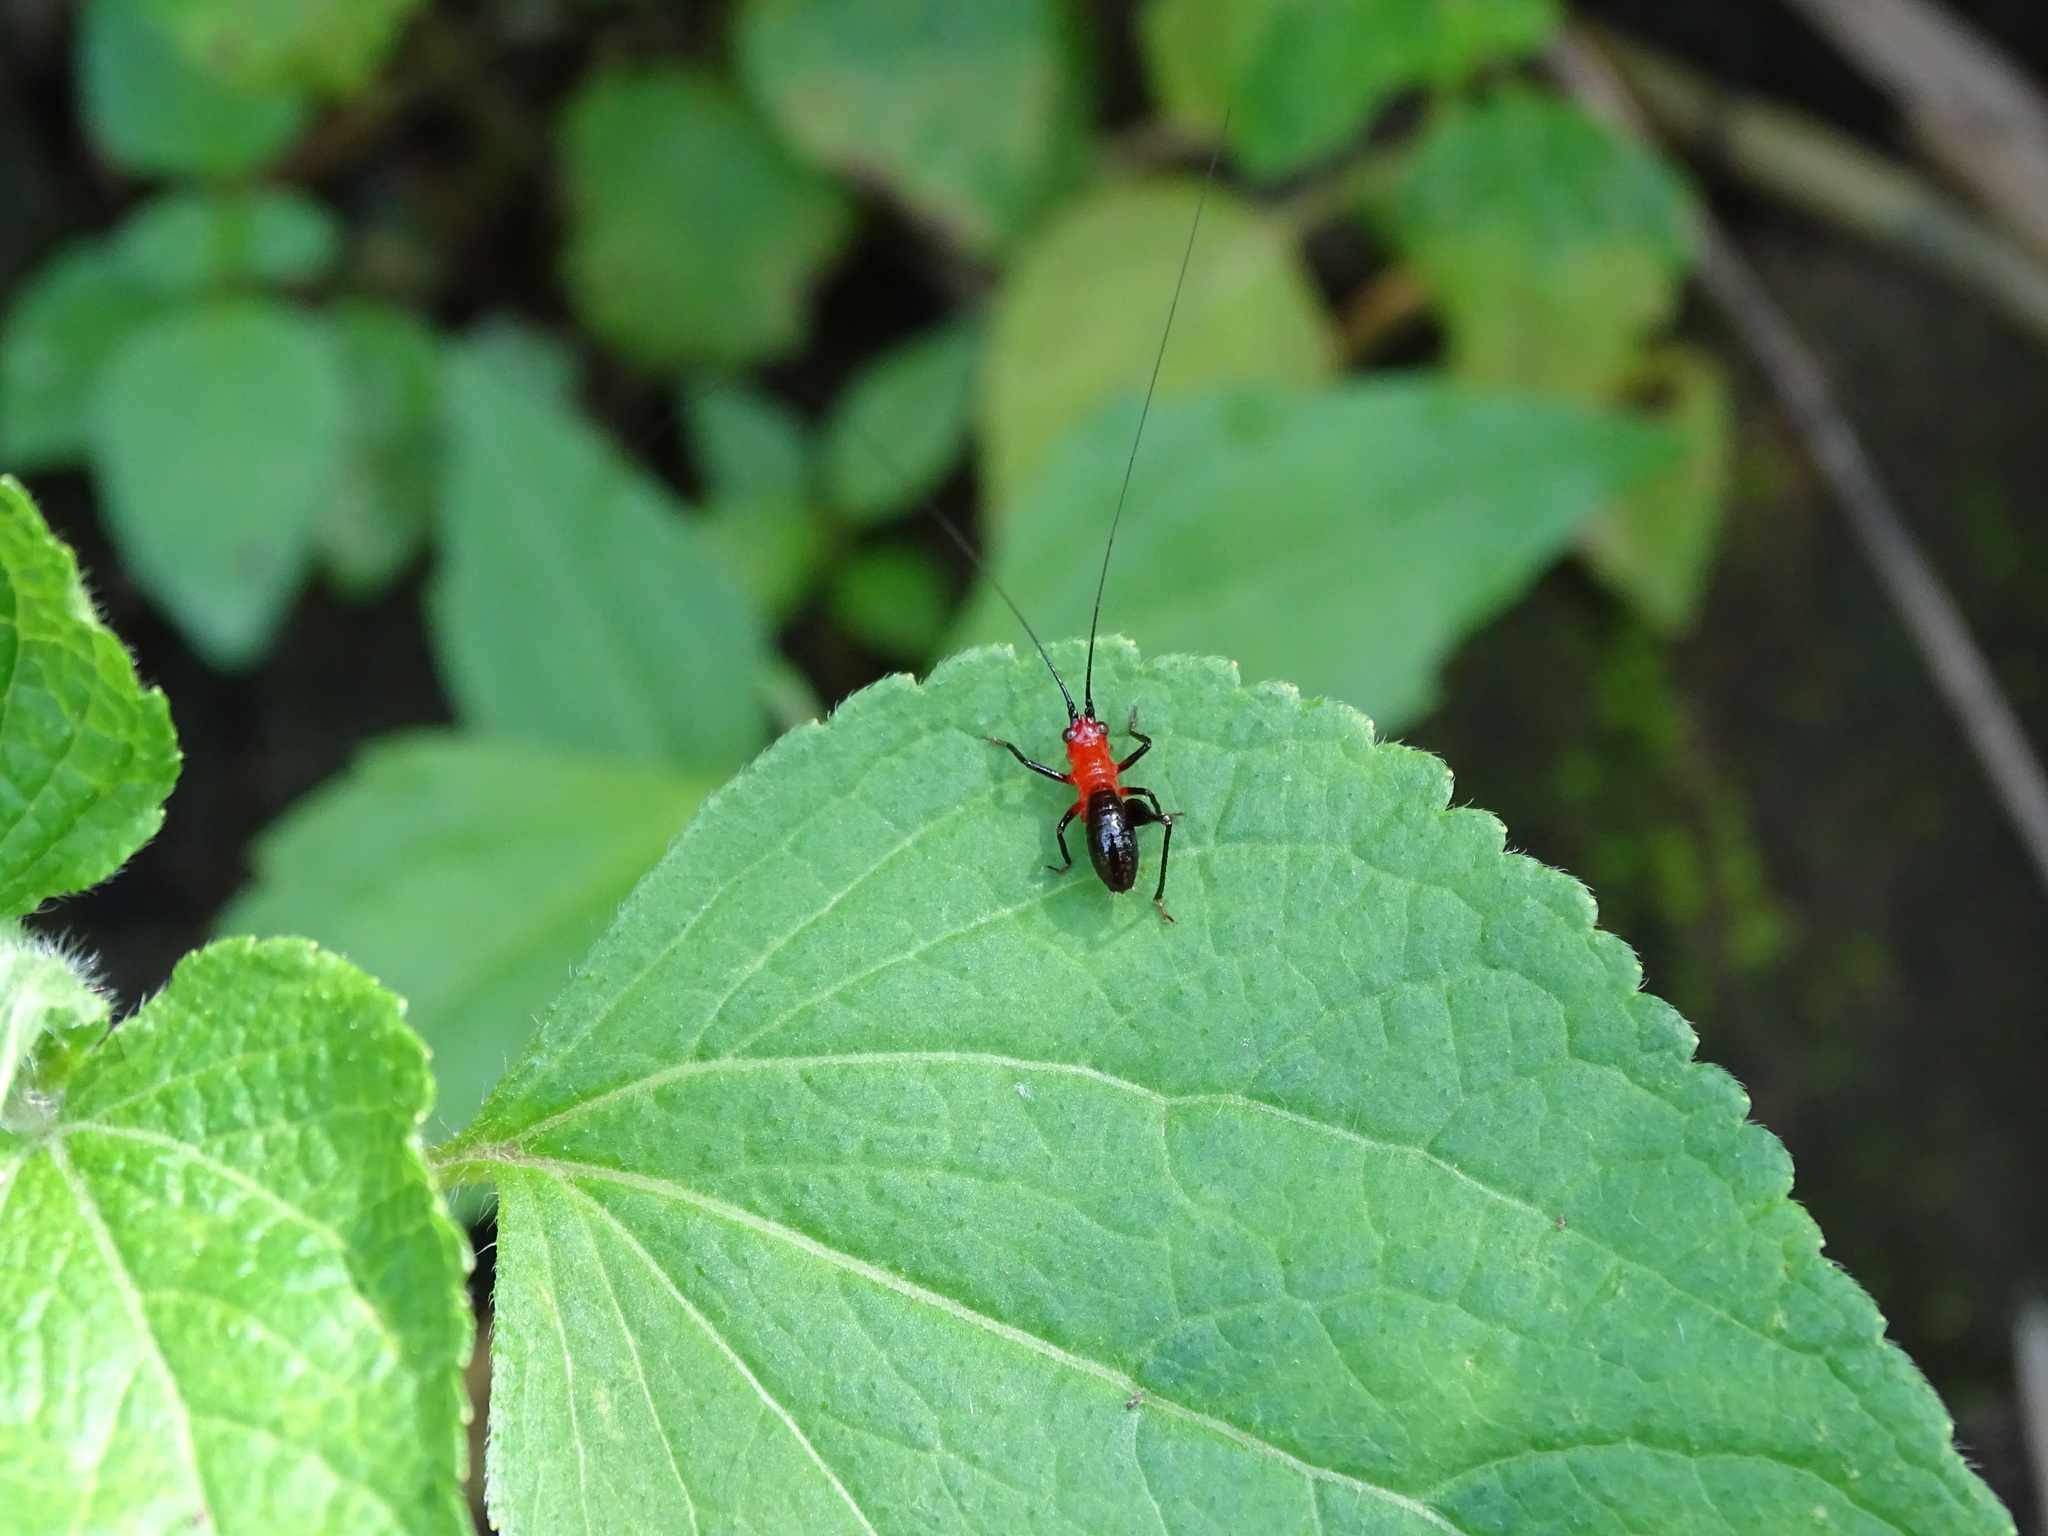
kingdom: Animalia
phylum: Arthropoda
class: Insecta
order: Orthoptera
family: Tettigoniidae
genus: Conocephalus
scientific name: Conocephalus melaenus
